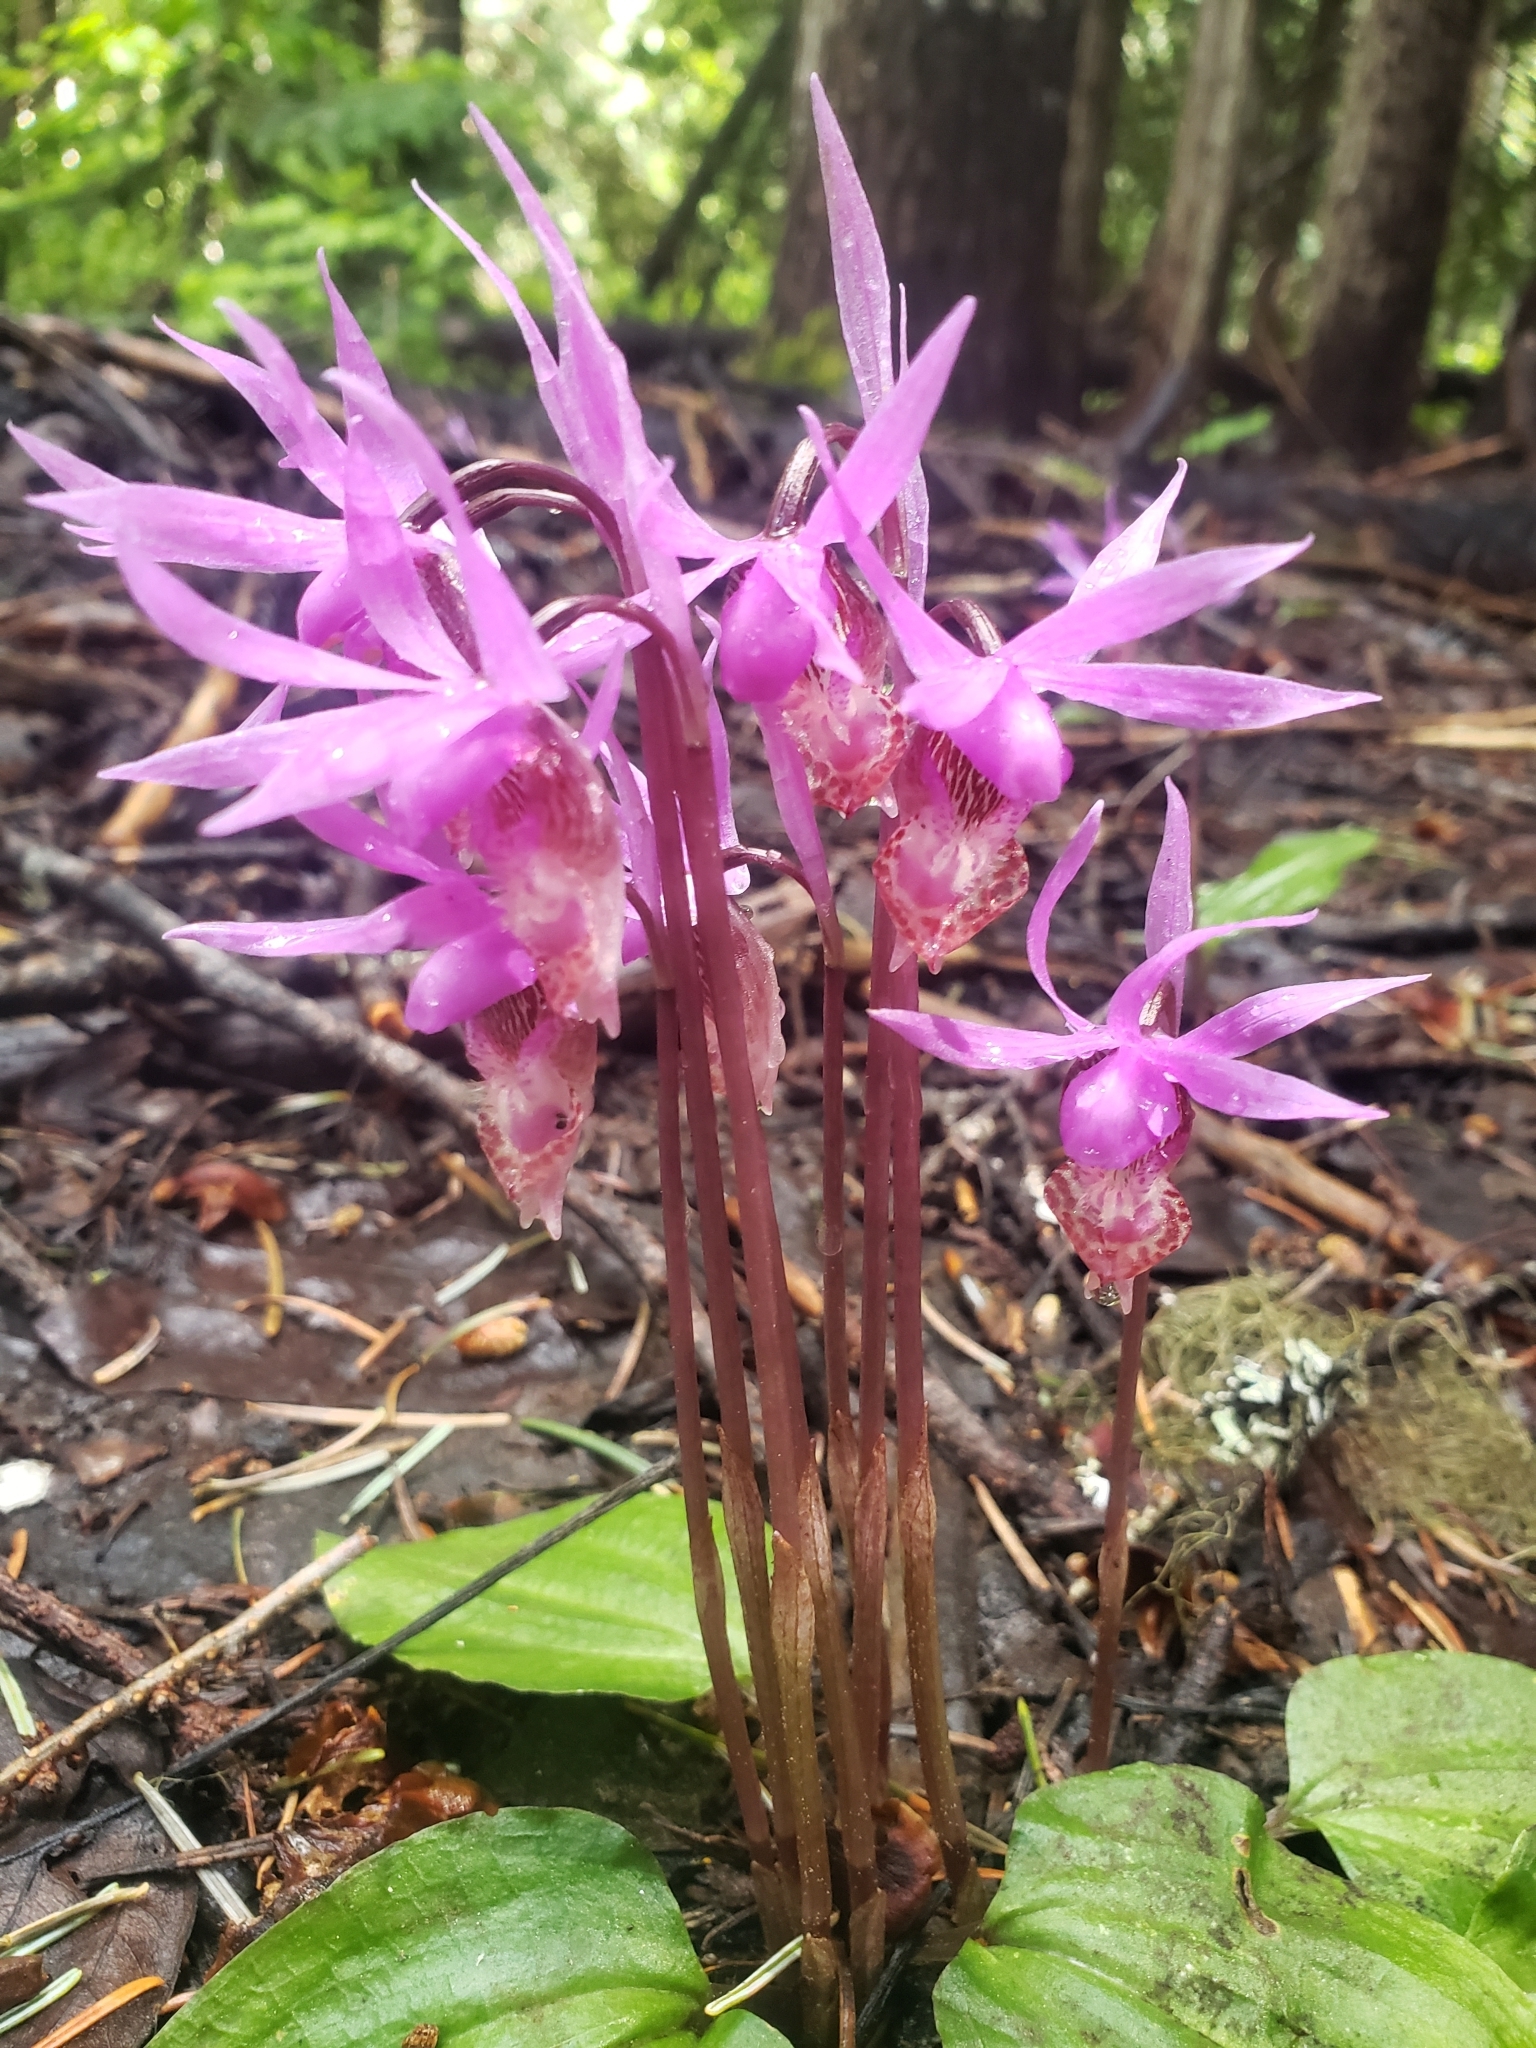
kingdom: Plantae
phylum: Tracheophyta
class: Liliopsida
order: Asparagales
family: Orchidaceae
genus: Calypso
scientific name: Calypso bulbosa
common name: Calypso
